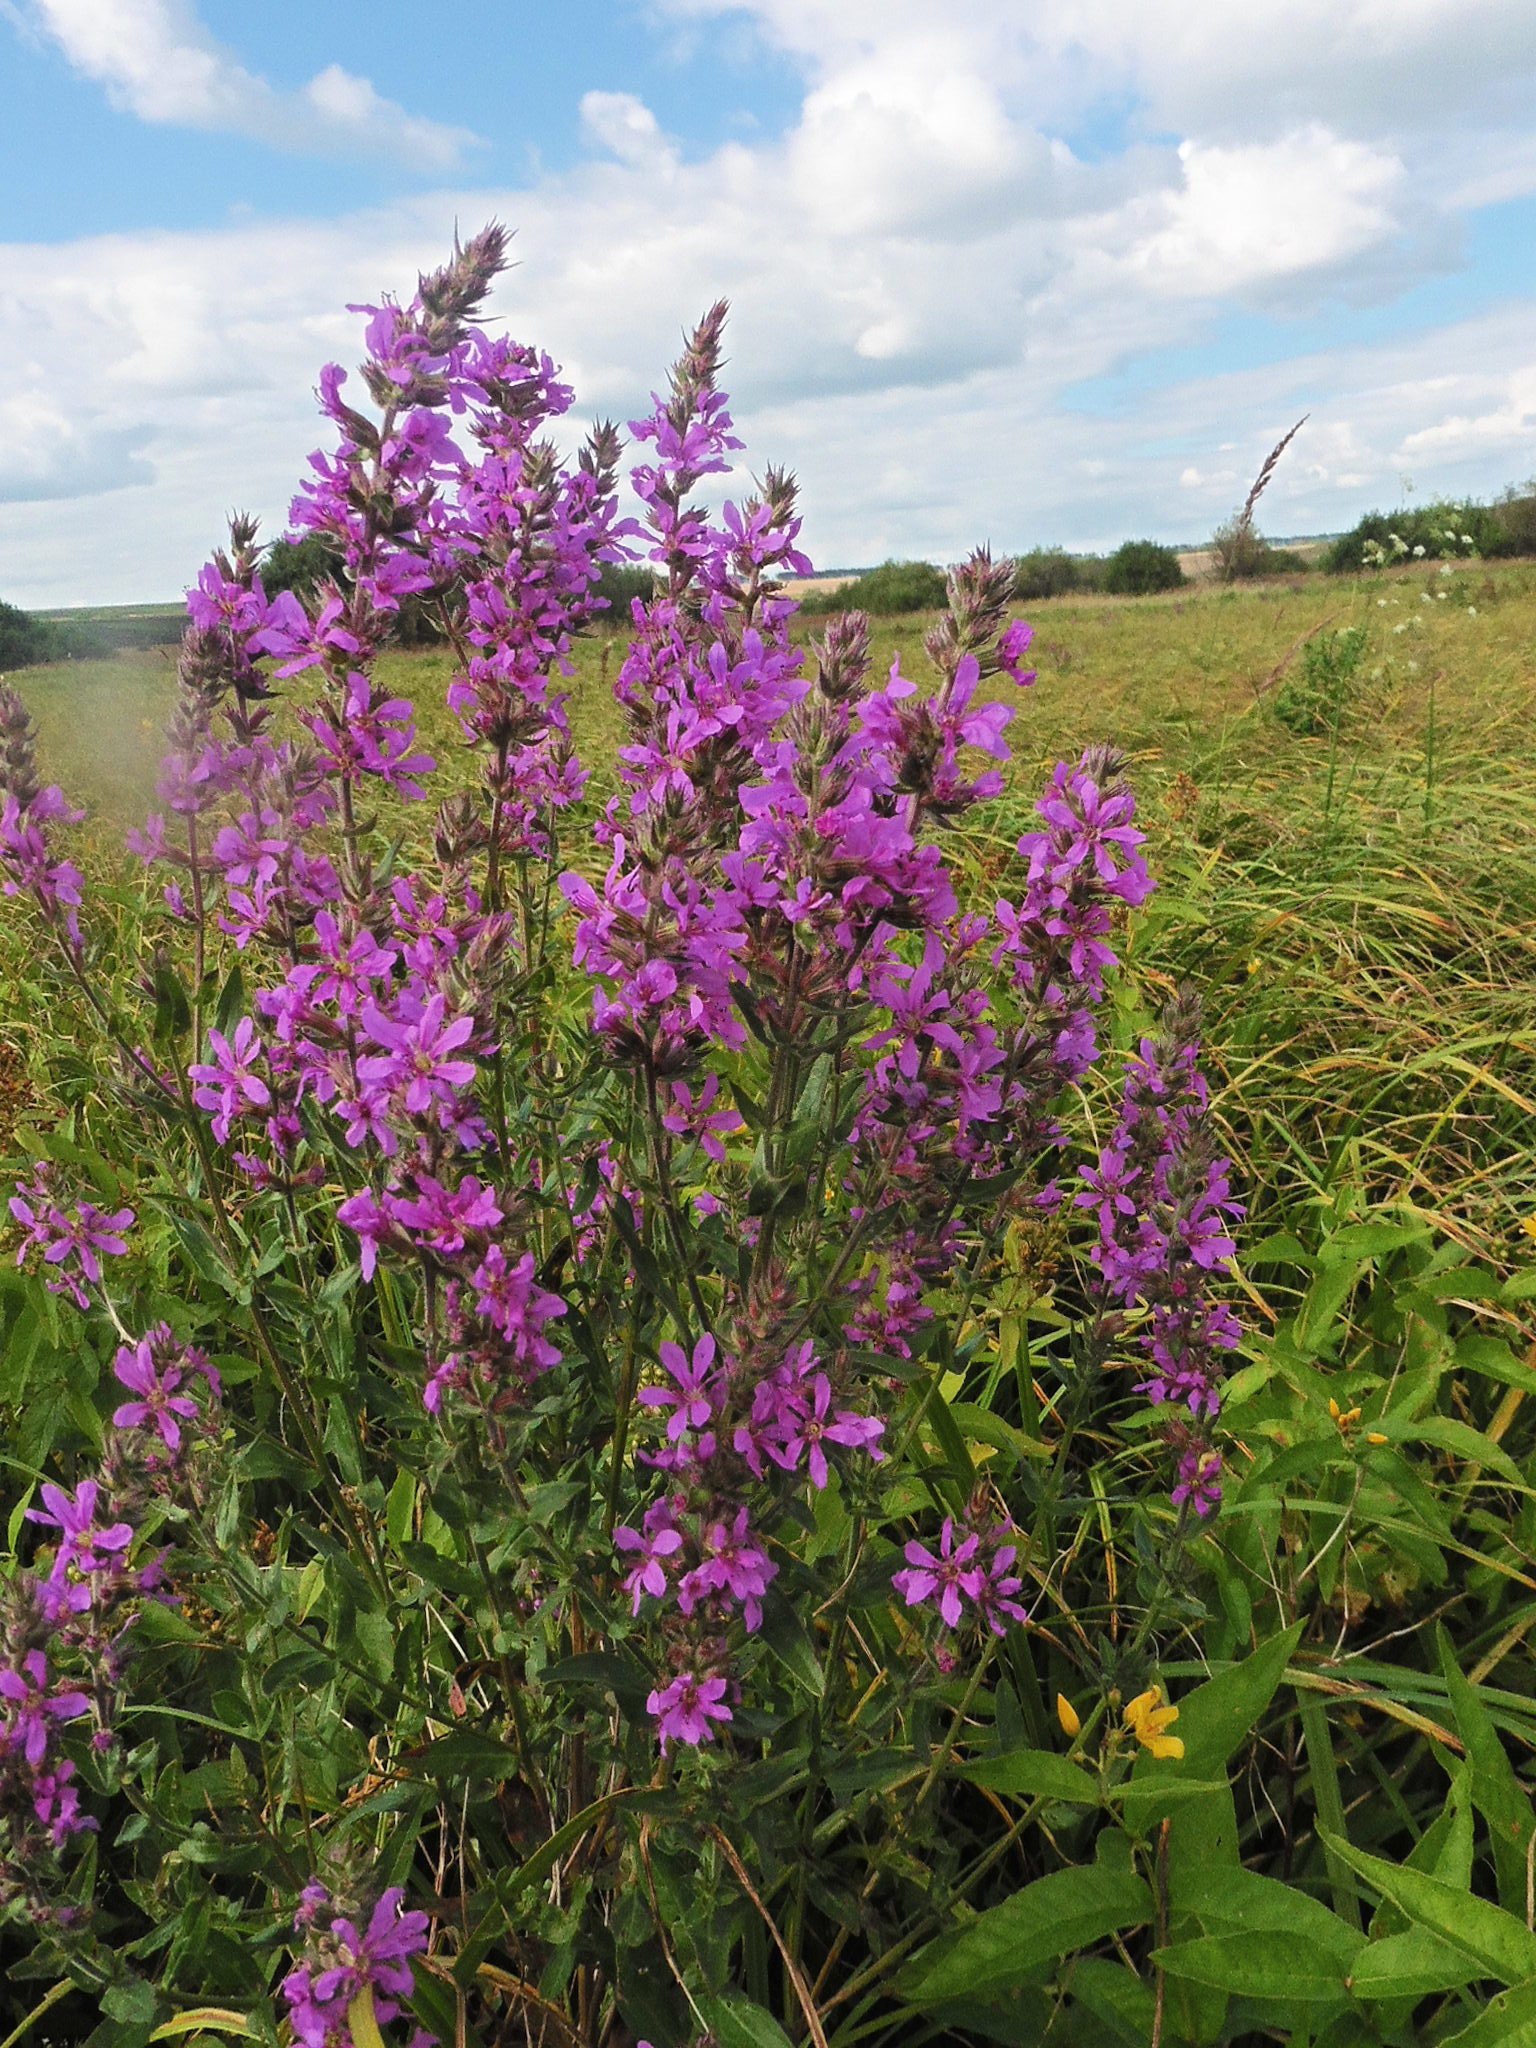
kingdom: Plantae
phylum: Tracheophyta
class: Magnoliopsida
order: Myrtales
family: Lythraceae
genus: Lythrum
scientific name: Lythrum salicaria
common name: Purple loosestrife
